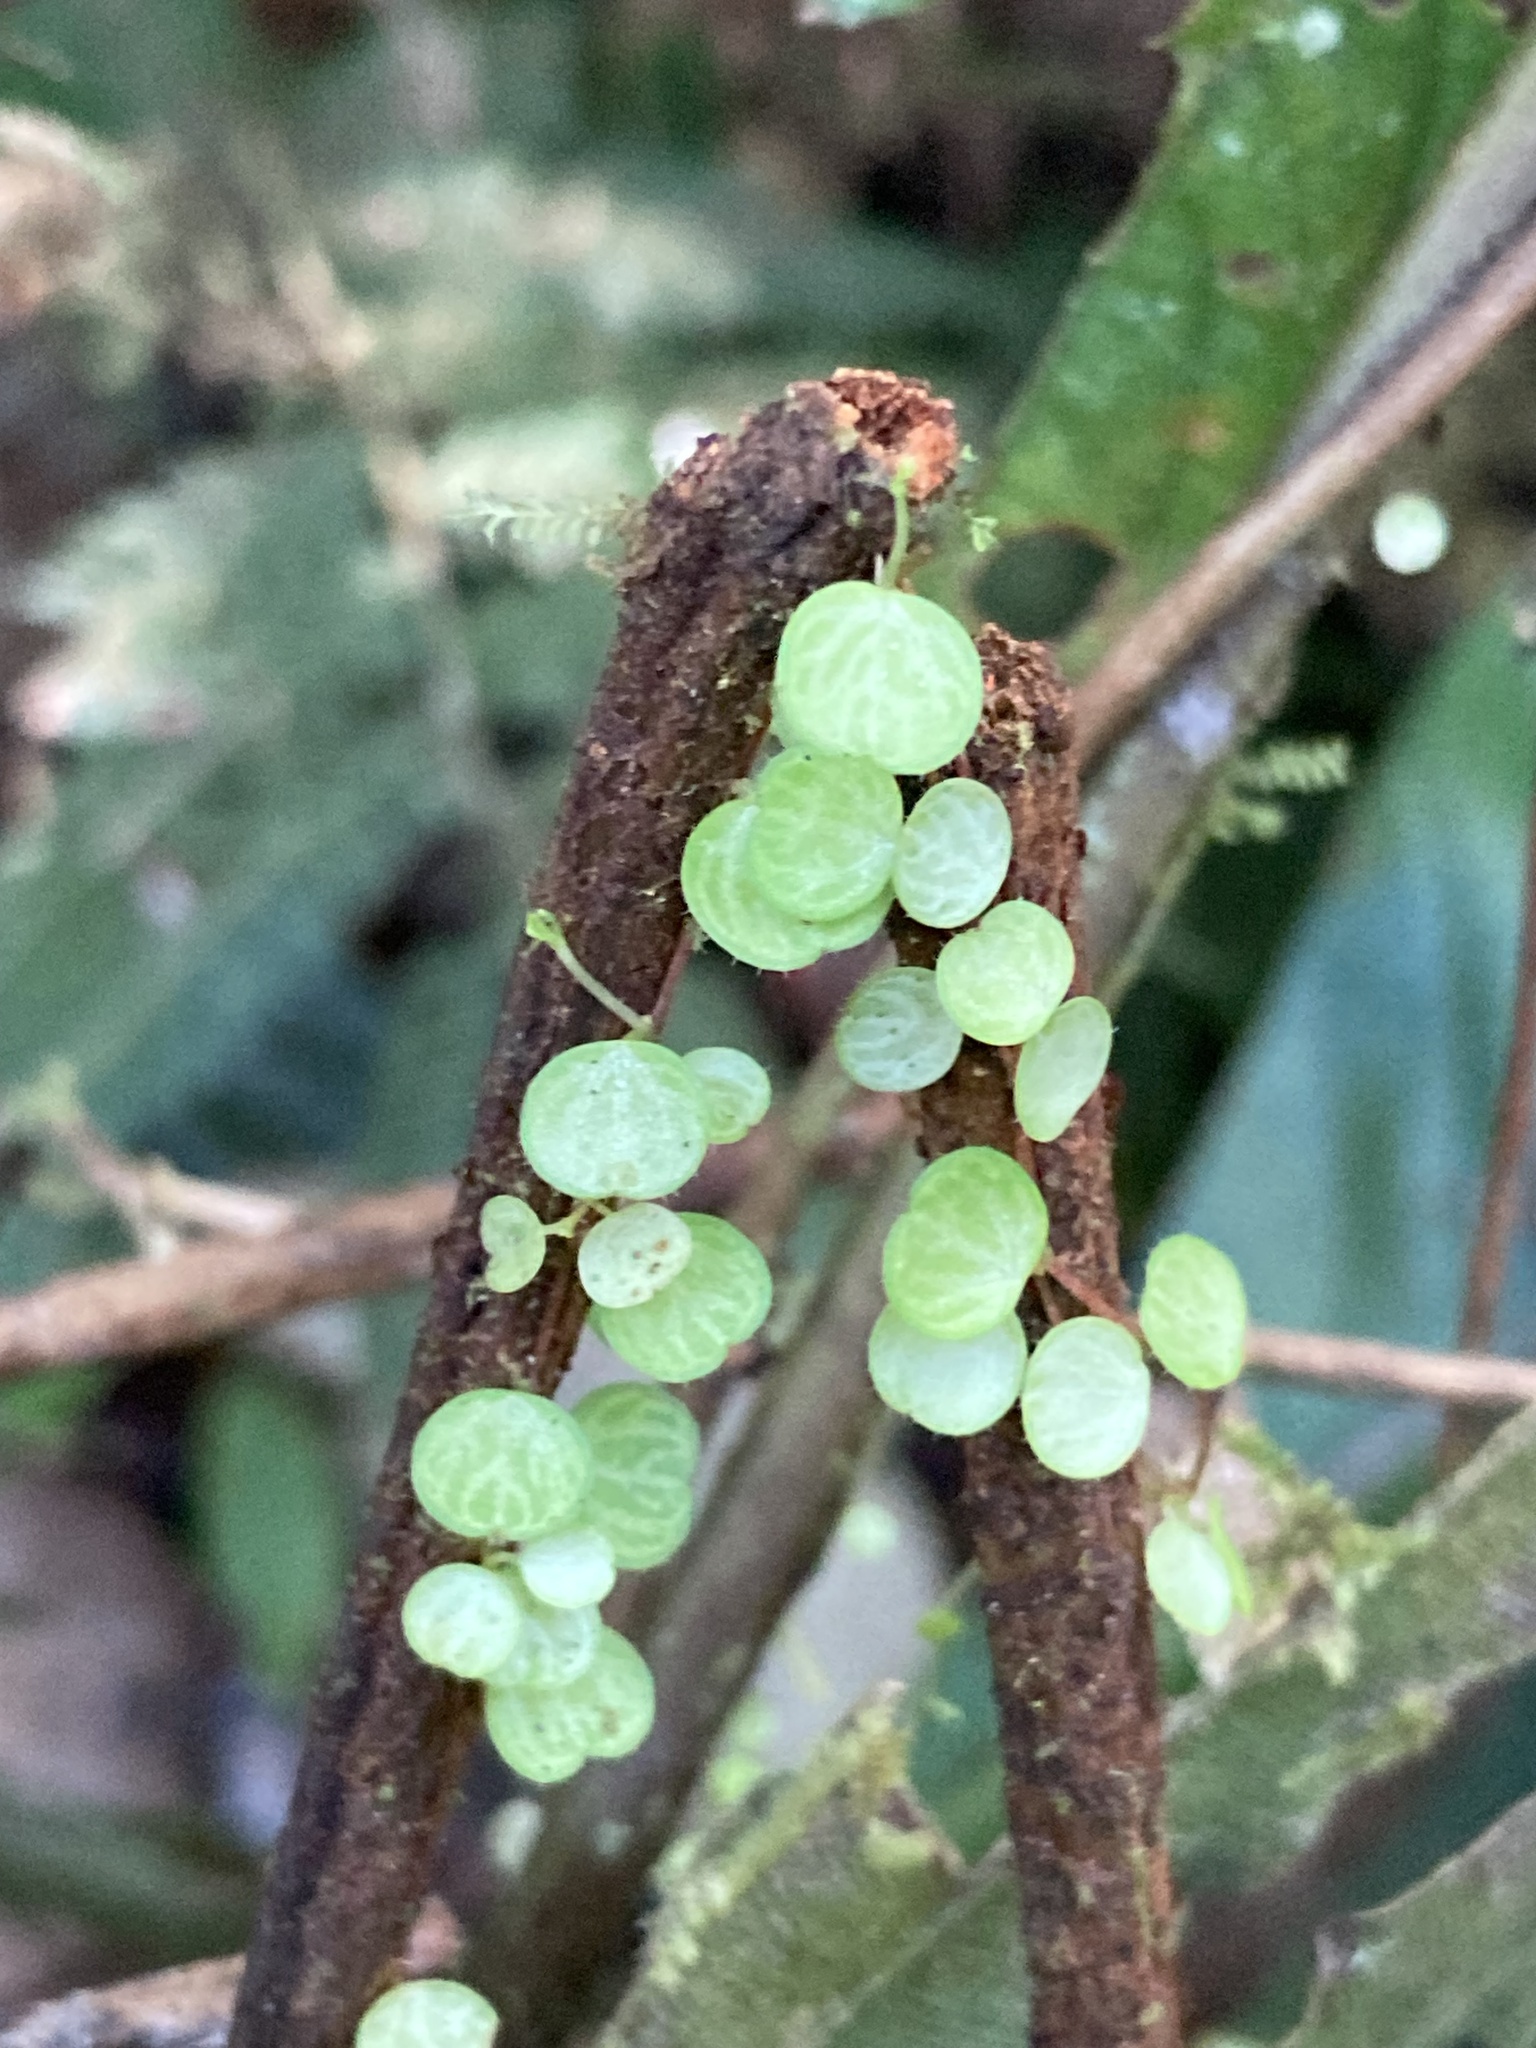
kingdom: Plantae
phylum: Tracheophyta
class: Magnoliopsida
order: Piperales
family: Piperaceae
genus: Peperomia
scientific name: Peperomia emarginella
